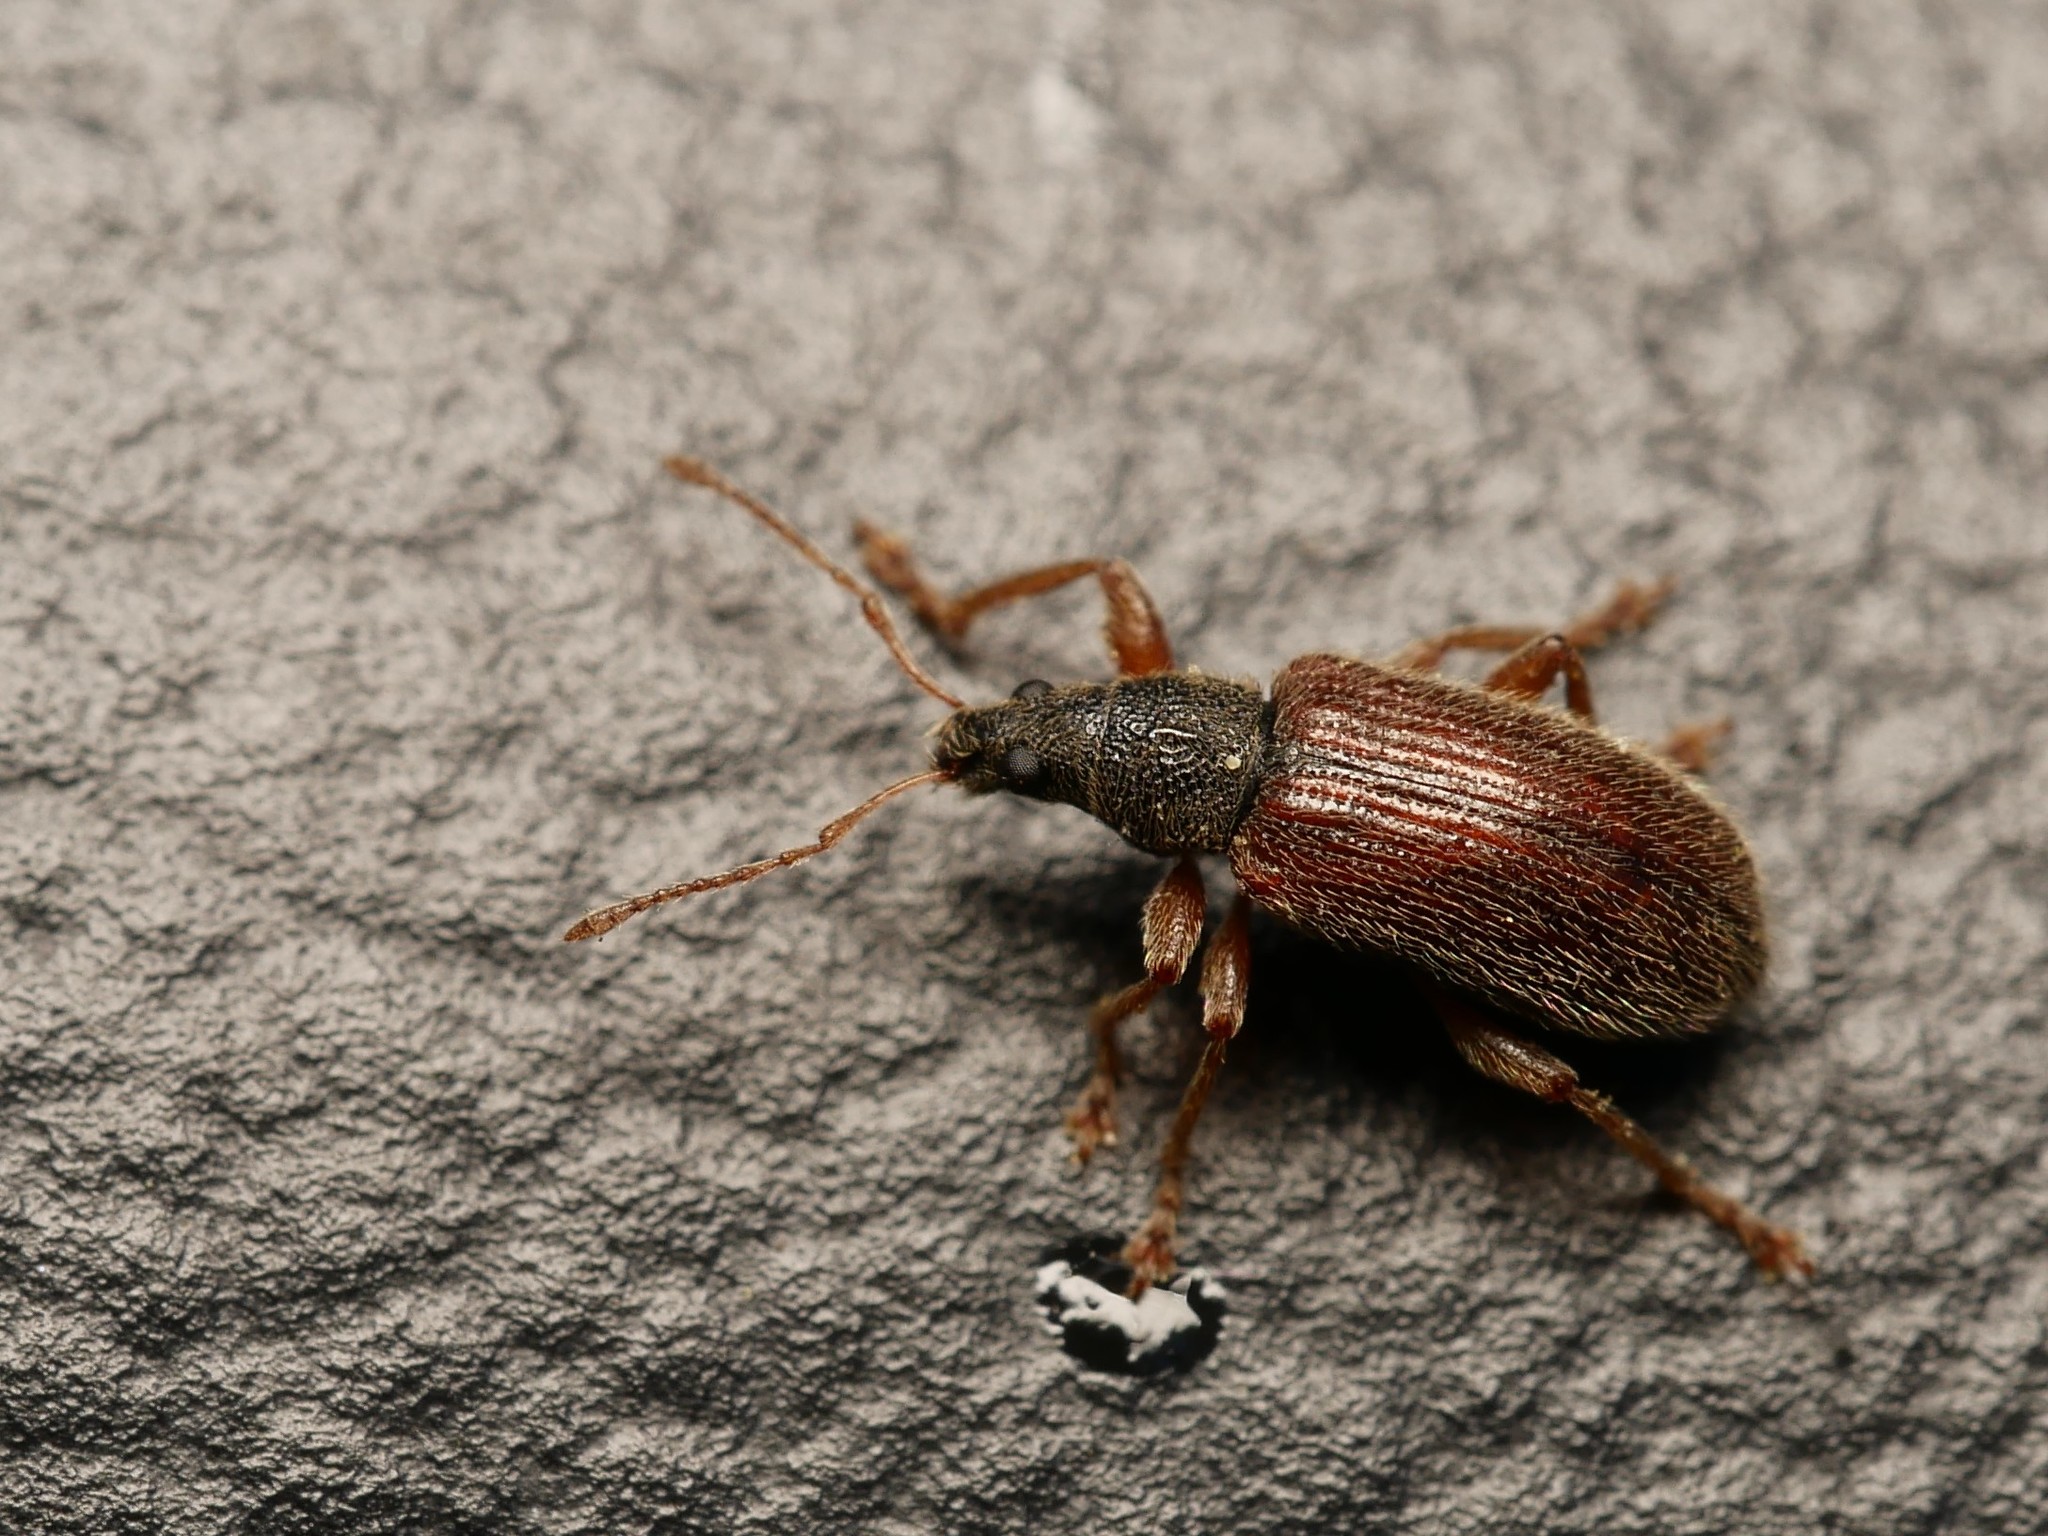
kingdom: Animalia
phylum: Arthropoda
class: Insecta
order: Coleoptera
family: Curculionidae
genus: Phyllobius
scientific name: Phyllobius oblongus
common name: Brown leaf weevil
